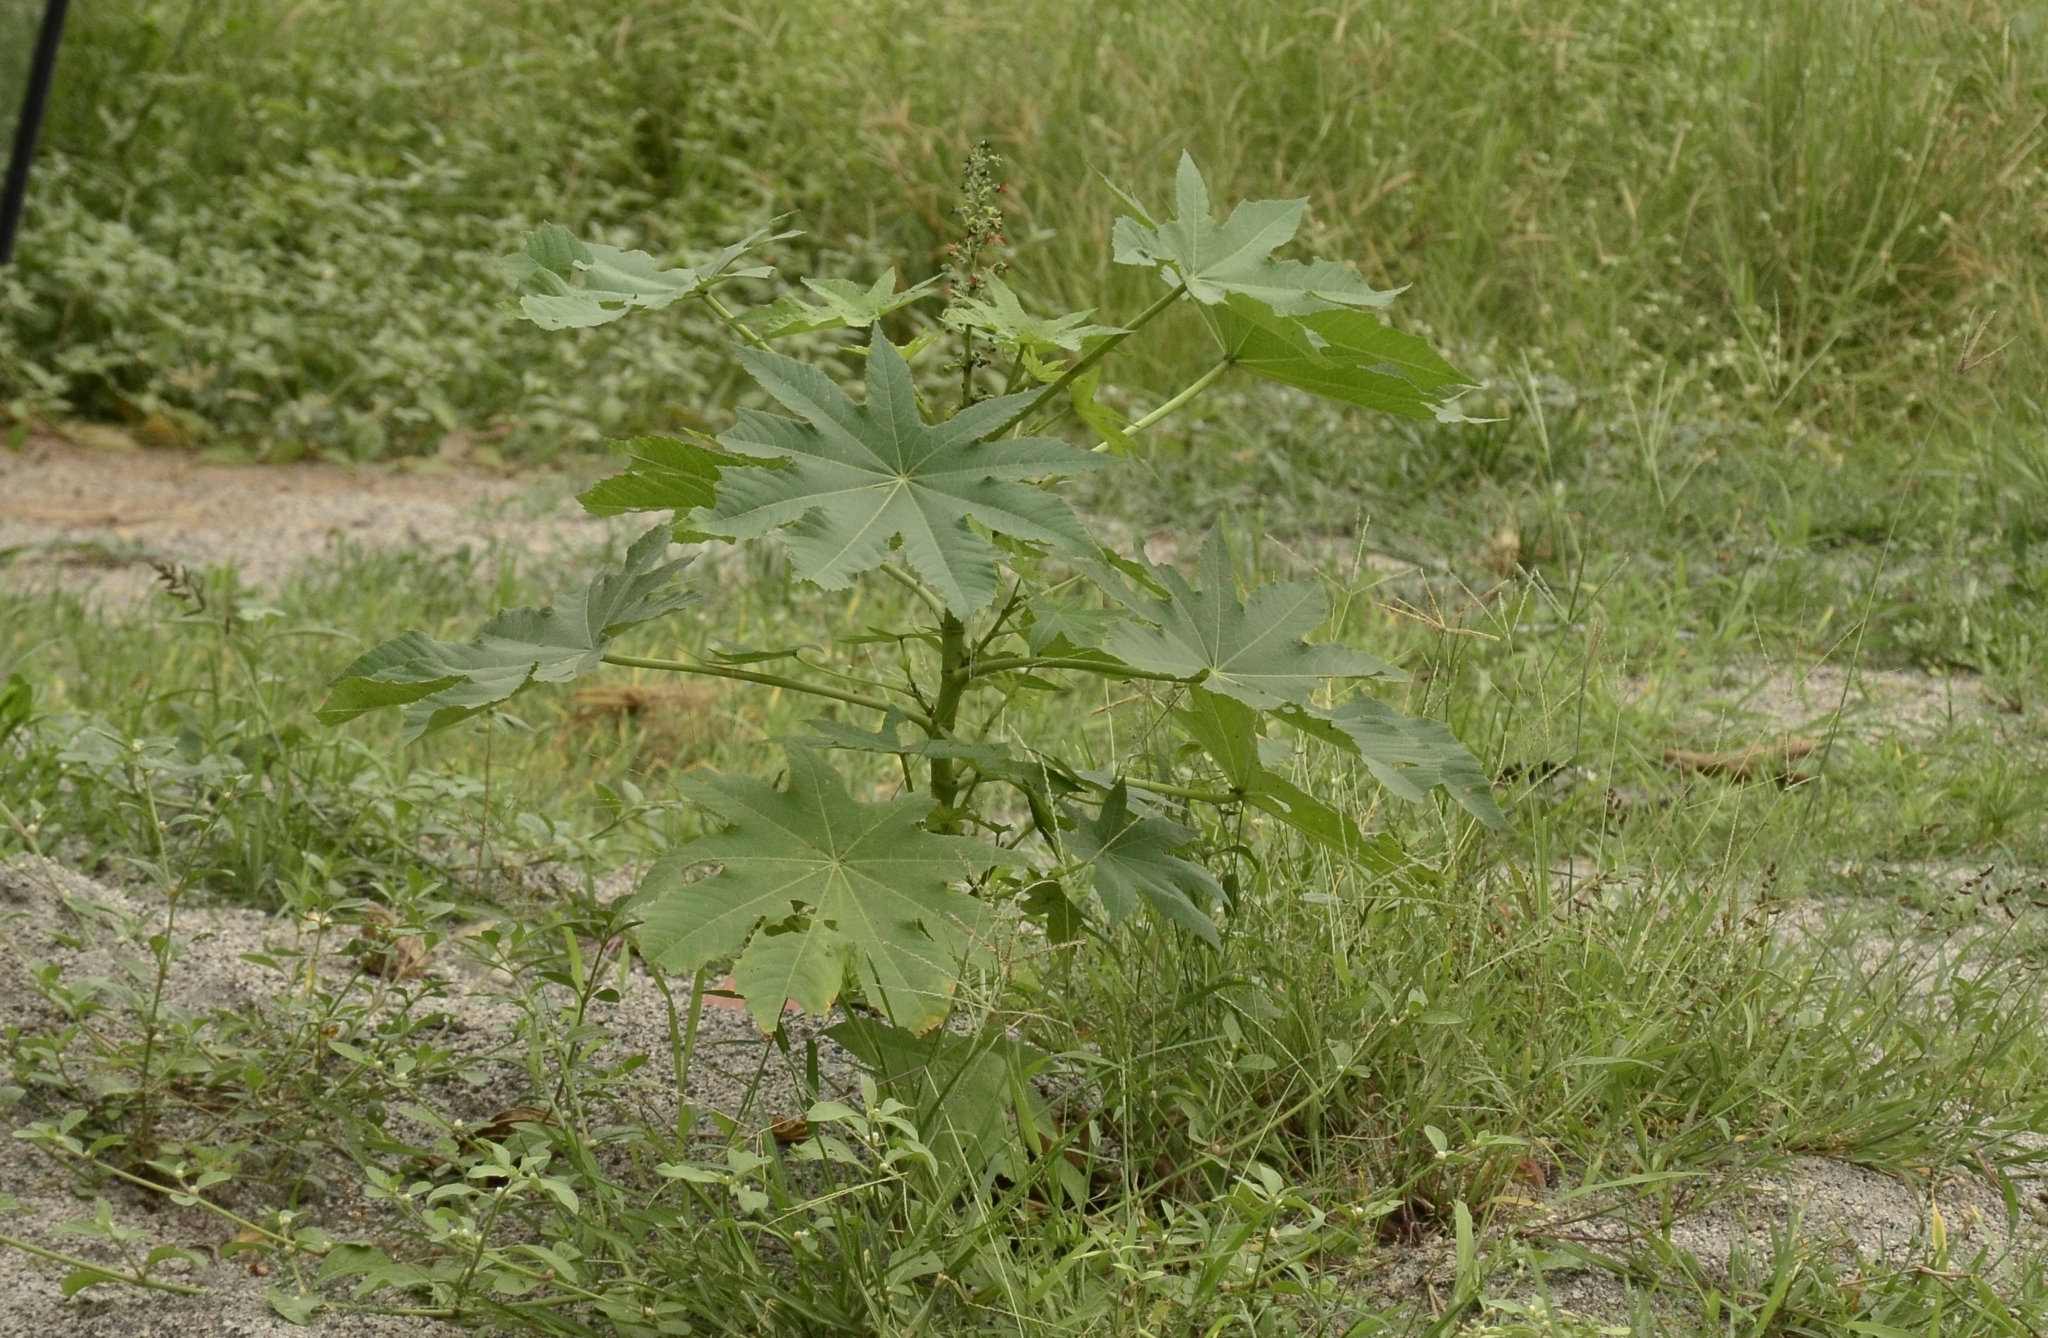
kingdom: Plantae
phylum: Tracheophyta
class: Magnoliopsida
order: Malpighiales
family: Euphorbiaceae
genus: Ricinus
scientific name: Ricinus communis
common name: Castor-oil-plant
